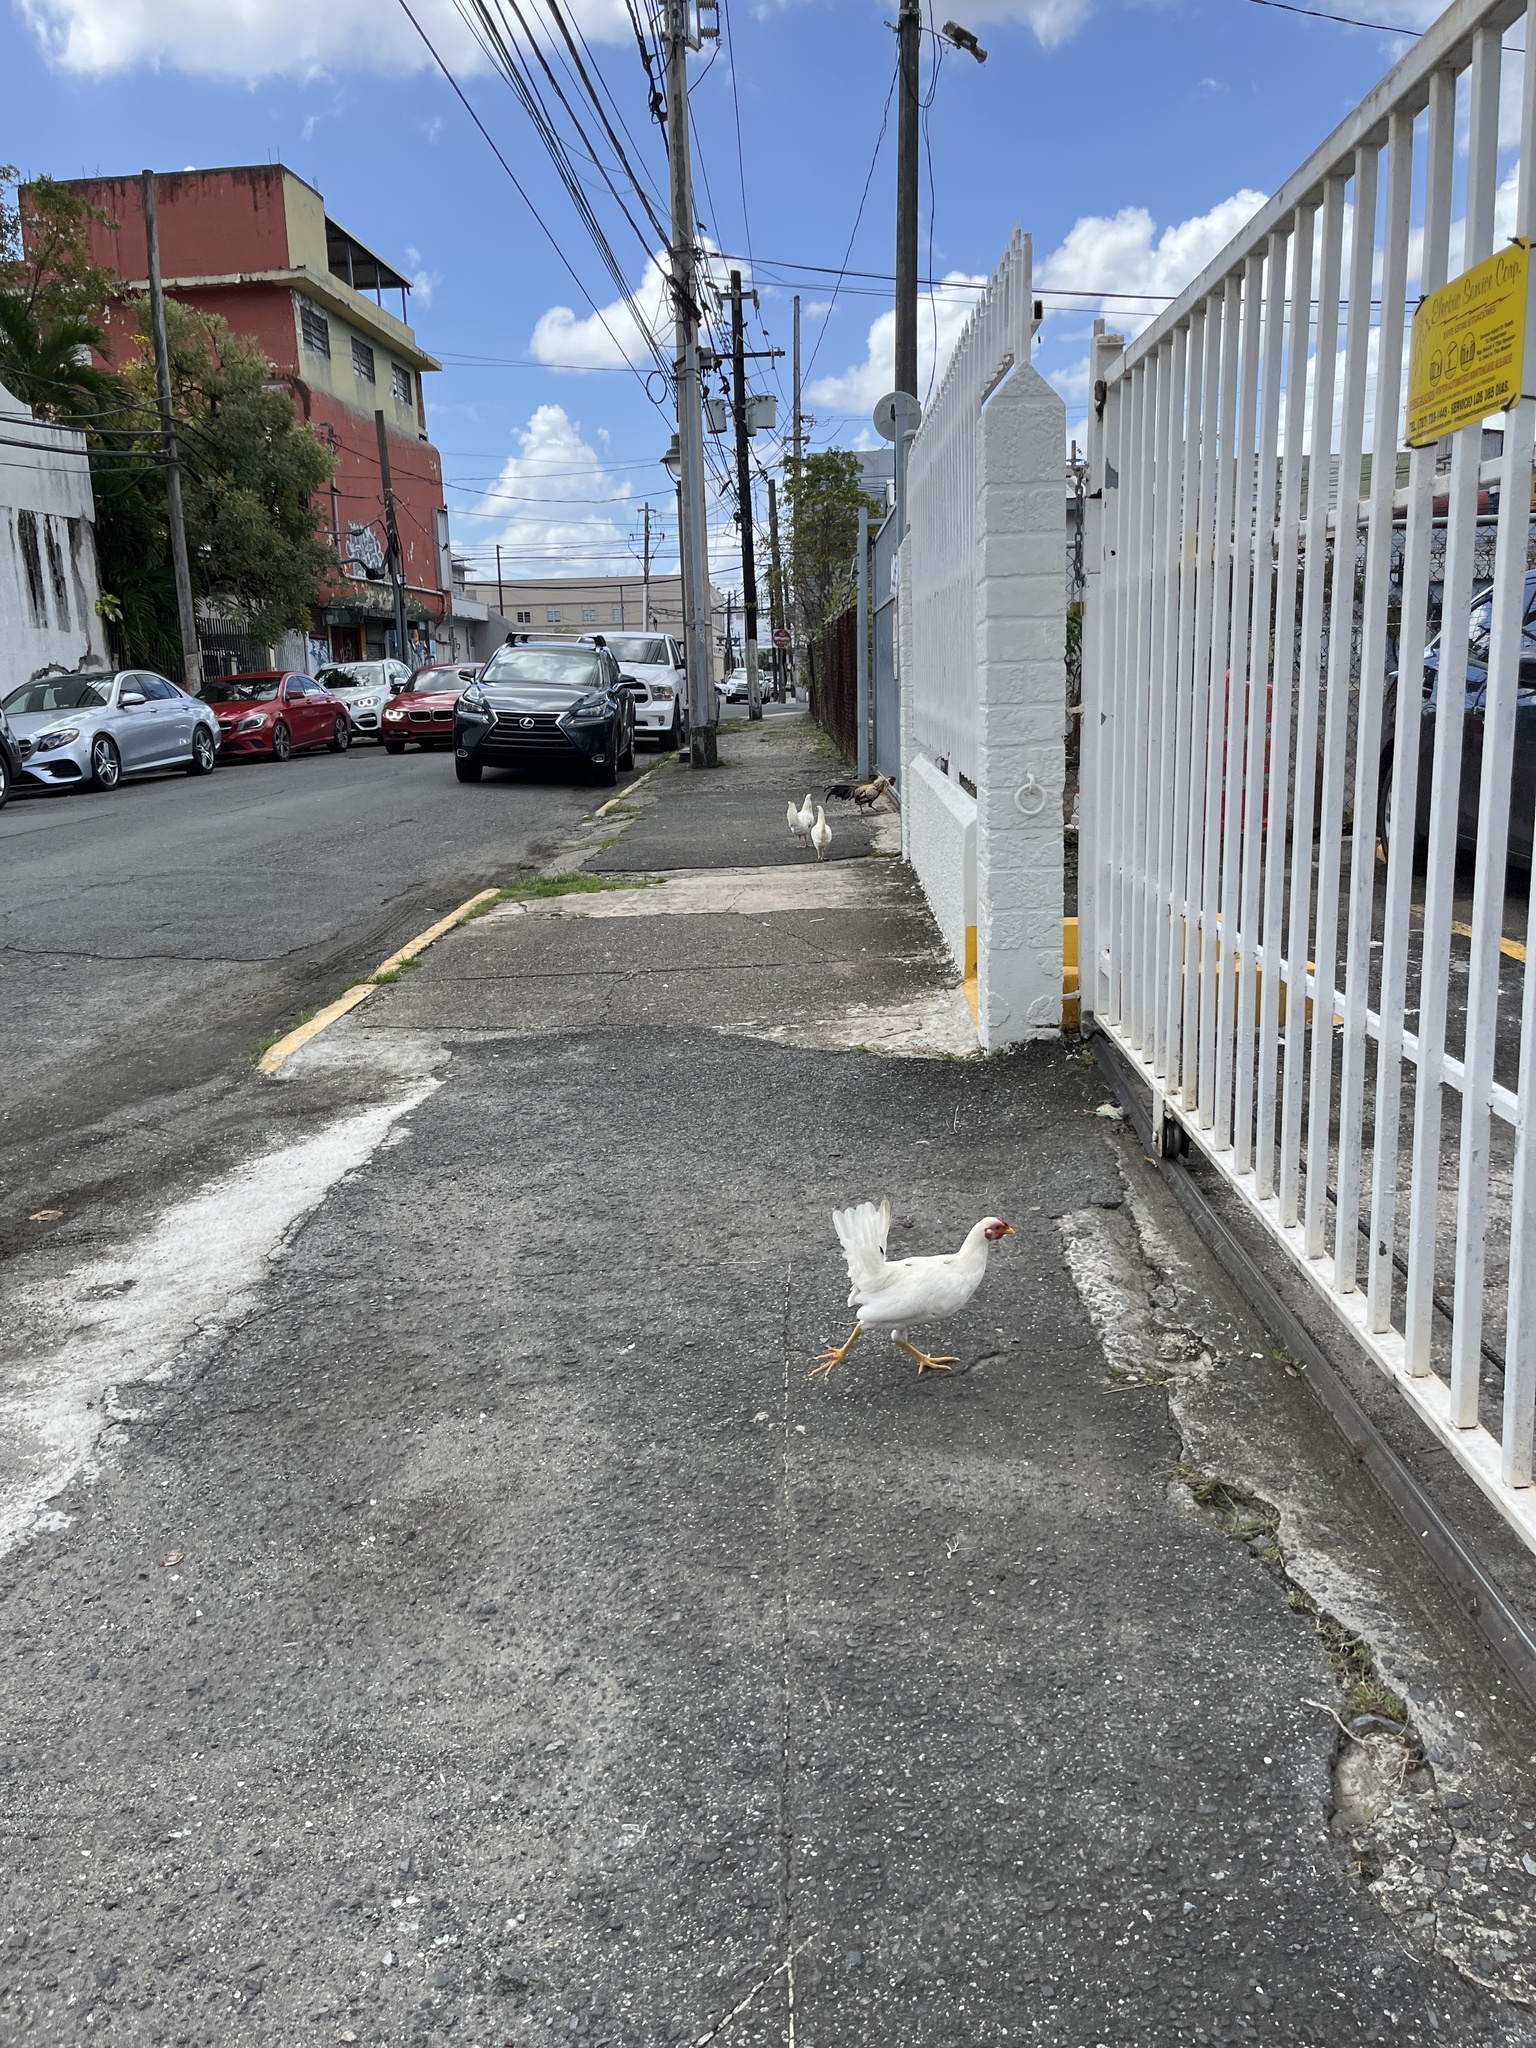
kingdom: Animalia
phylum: Chordata
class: Aves
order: Galliformes
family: Phasianidae
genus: Gallus
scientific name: Gallus gallus
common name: Red junglefowl
